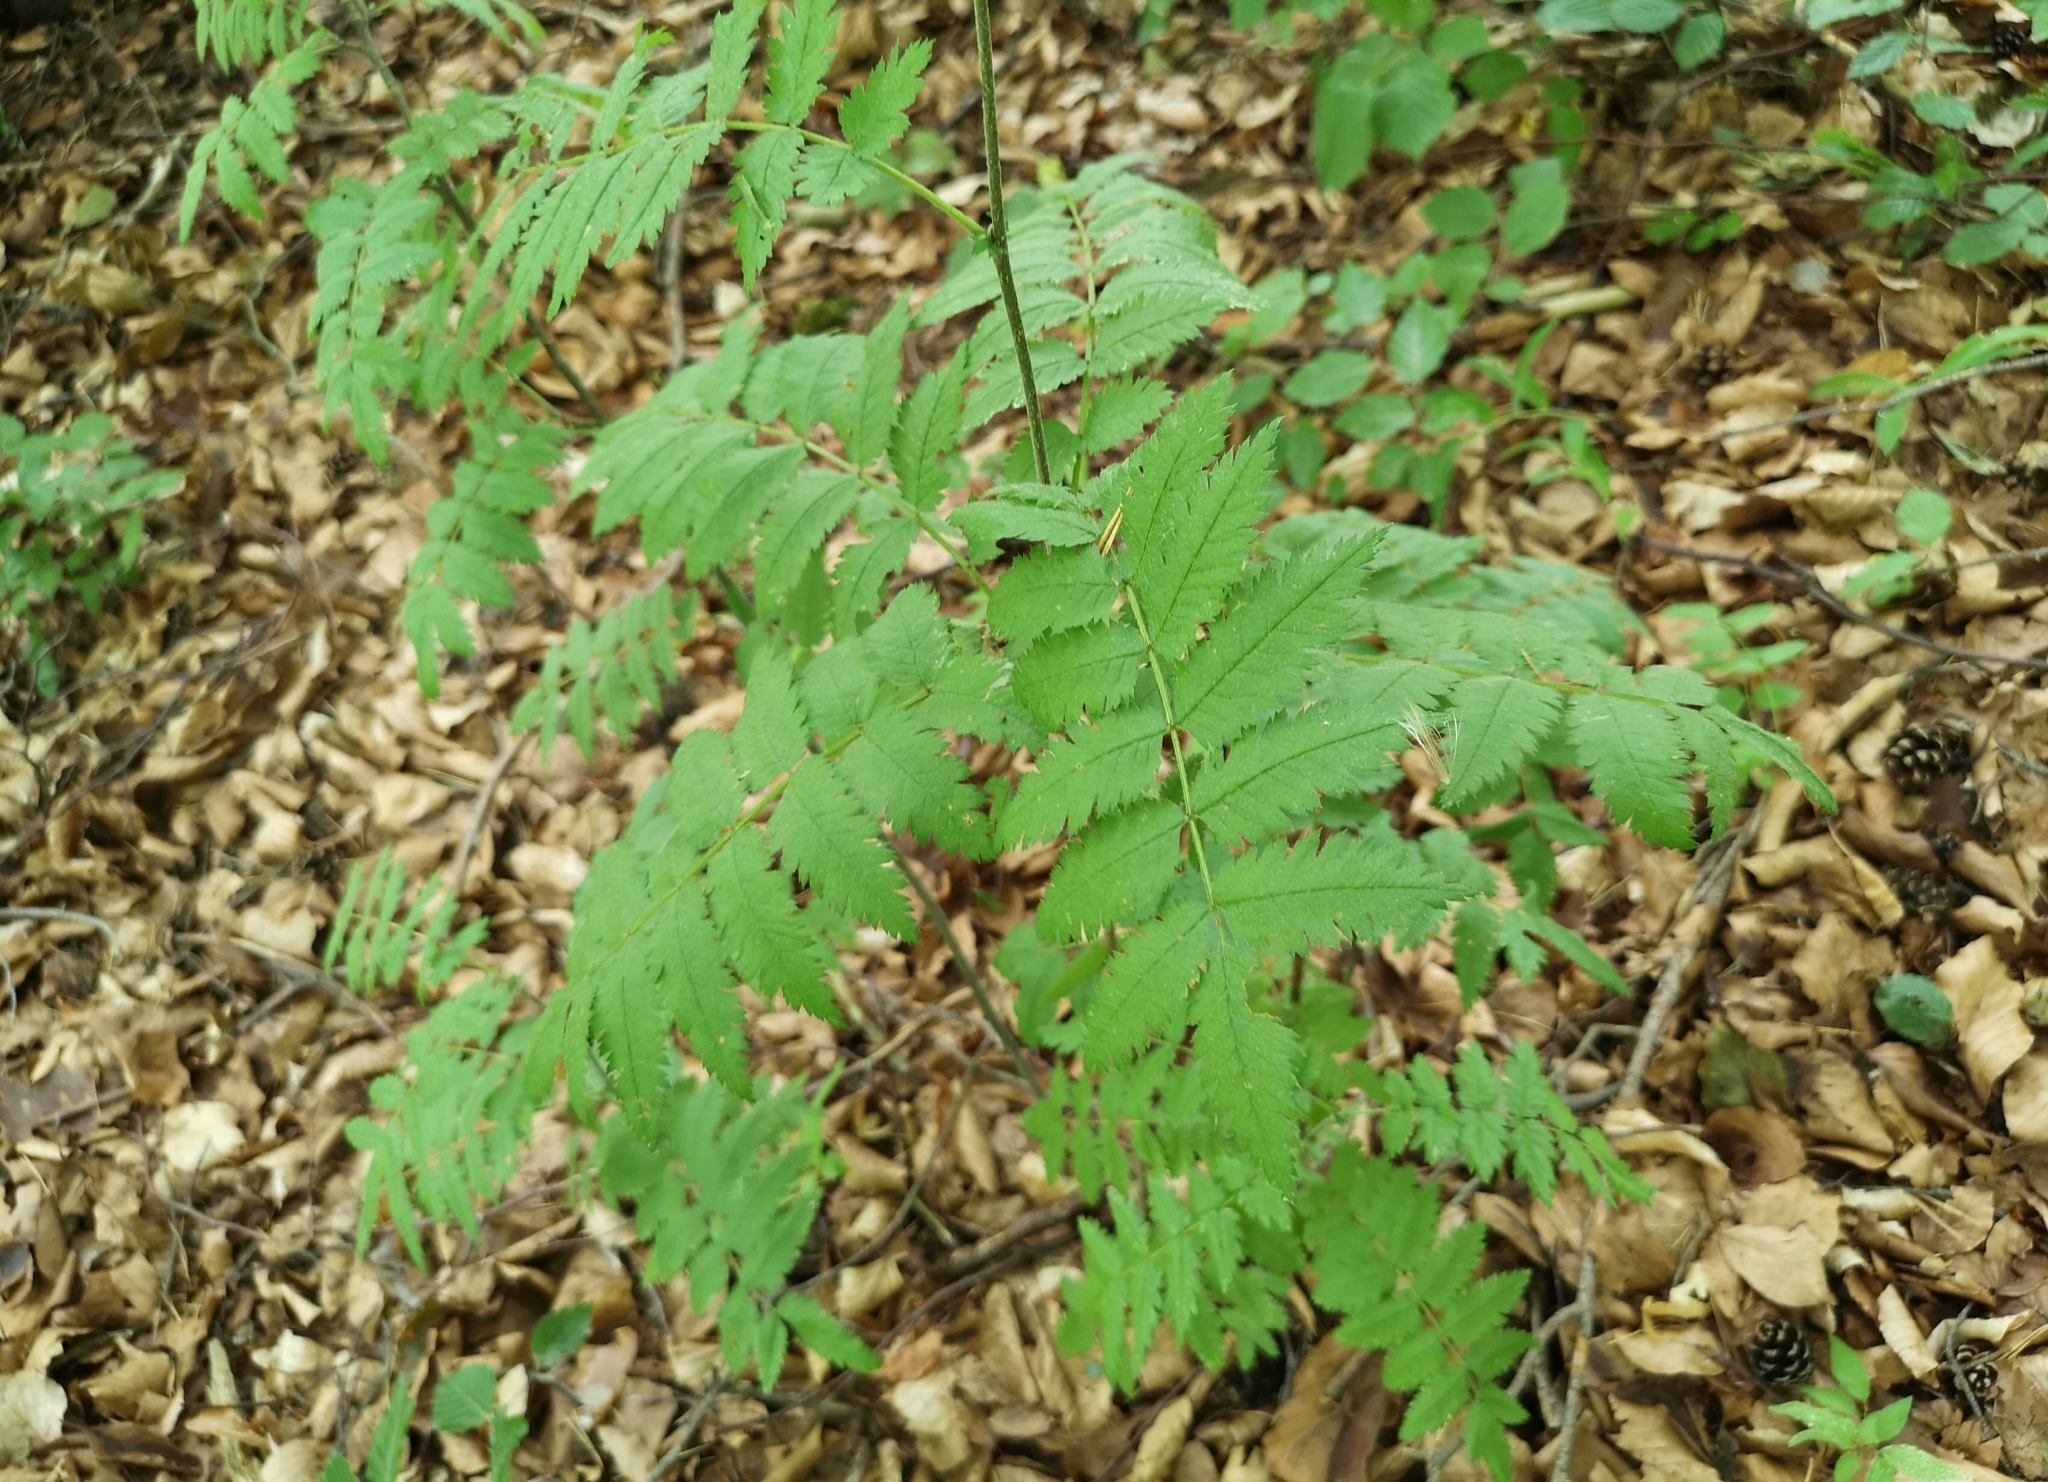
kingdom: Plantae
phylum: Tracheophyta
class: Magnoliopsida
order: Rosales
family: Rosaceae
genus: Sorbus
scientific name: Sorbus aucuparia
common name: Rowan
